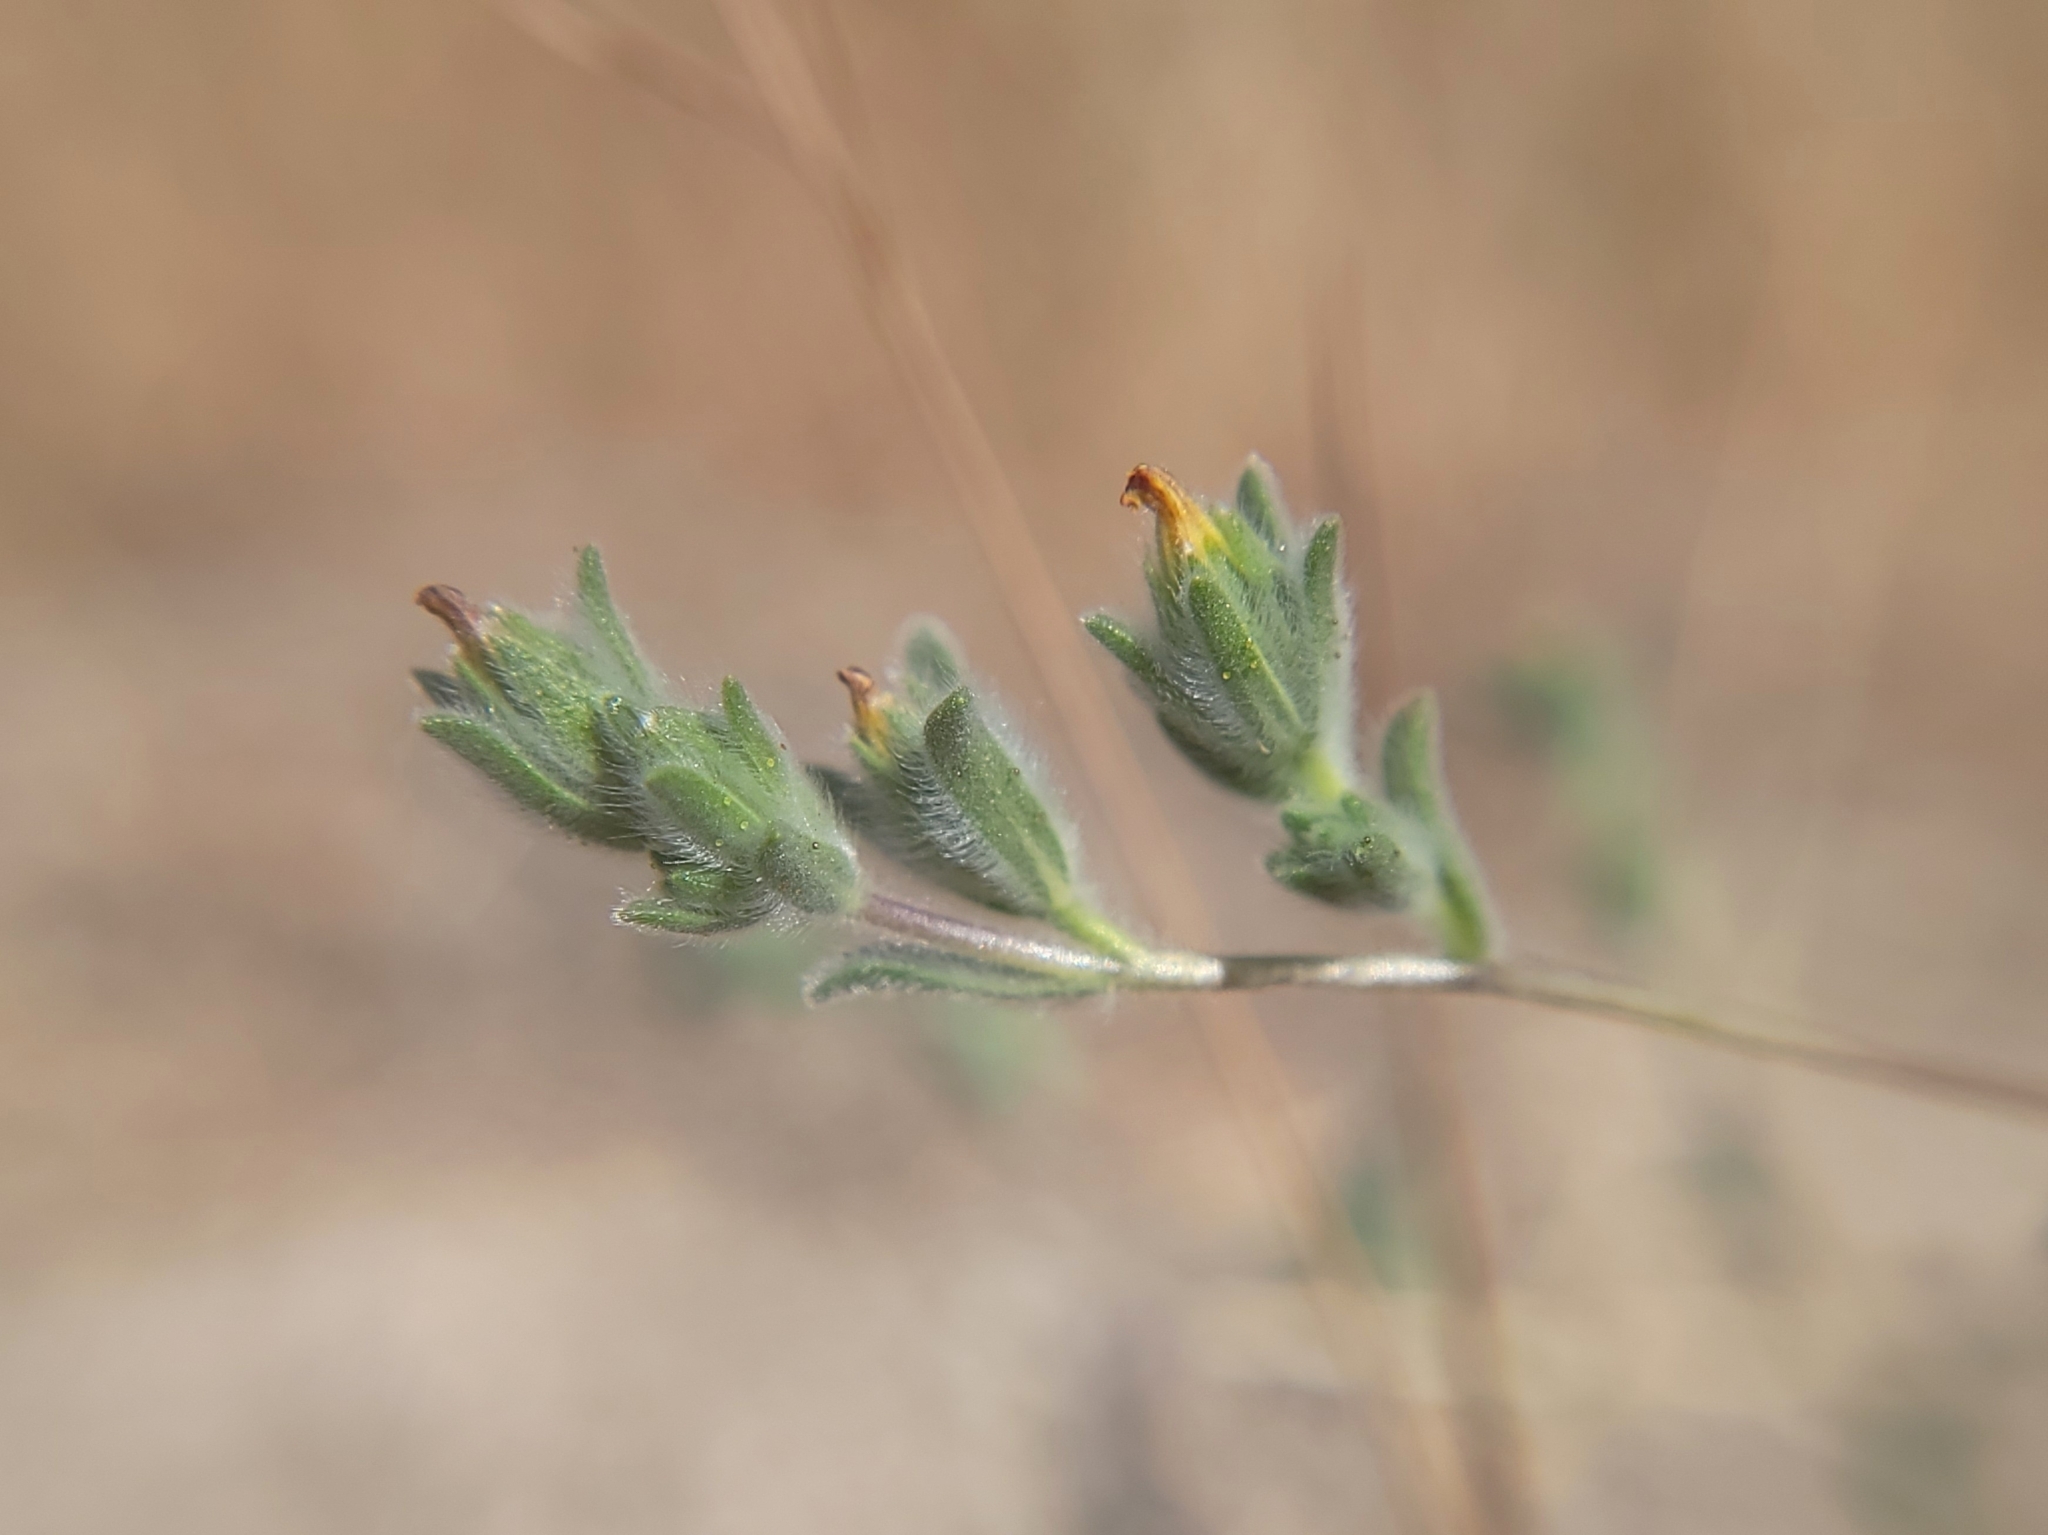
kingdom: Plantae
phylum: Tracheophyta
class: Magnoliopsida
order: Asterales
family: Asteraceae
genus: Lagophylla
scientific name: Lagophylla ramosissima
